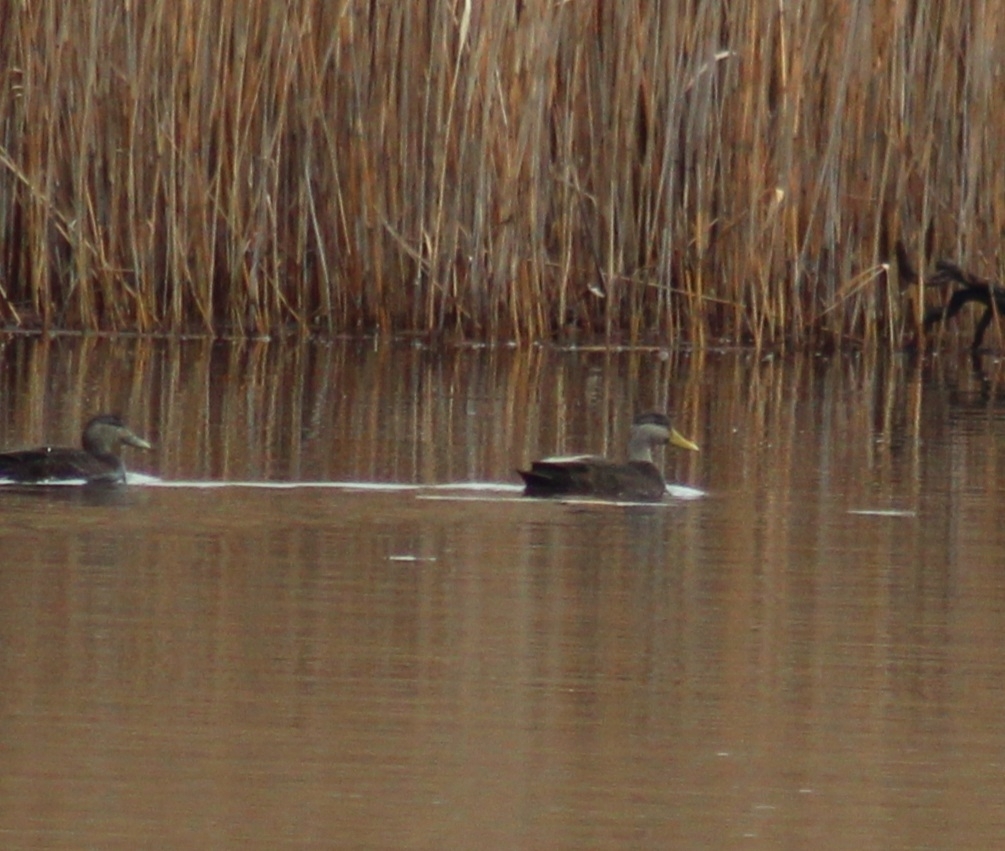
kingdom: Animalia
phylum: Chordata
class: Aves
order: Anseriformes
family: Anatidae
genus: Anas
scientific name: Anas rubripes
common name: American black duck
